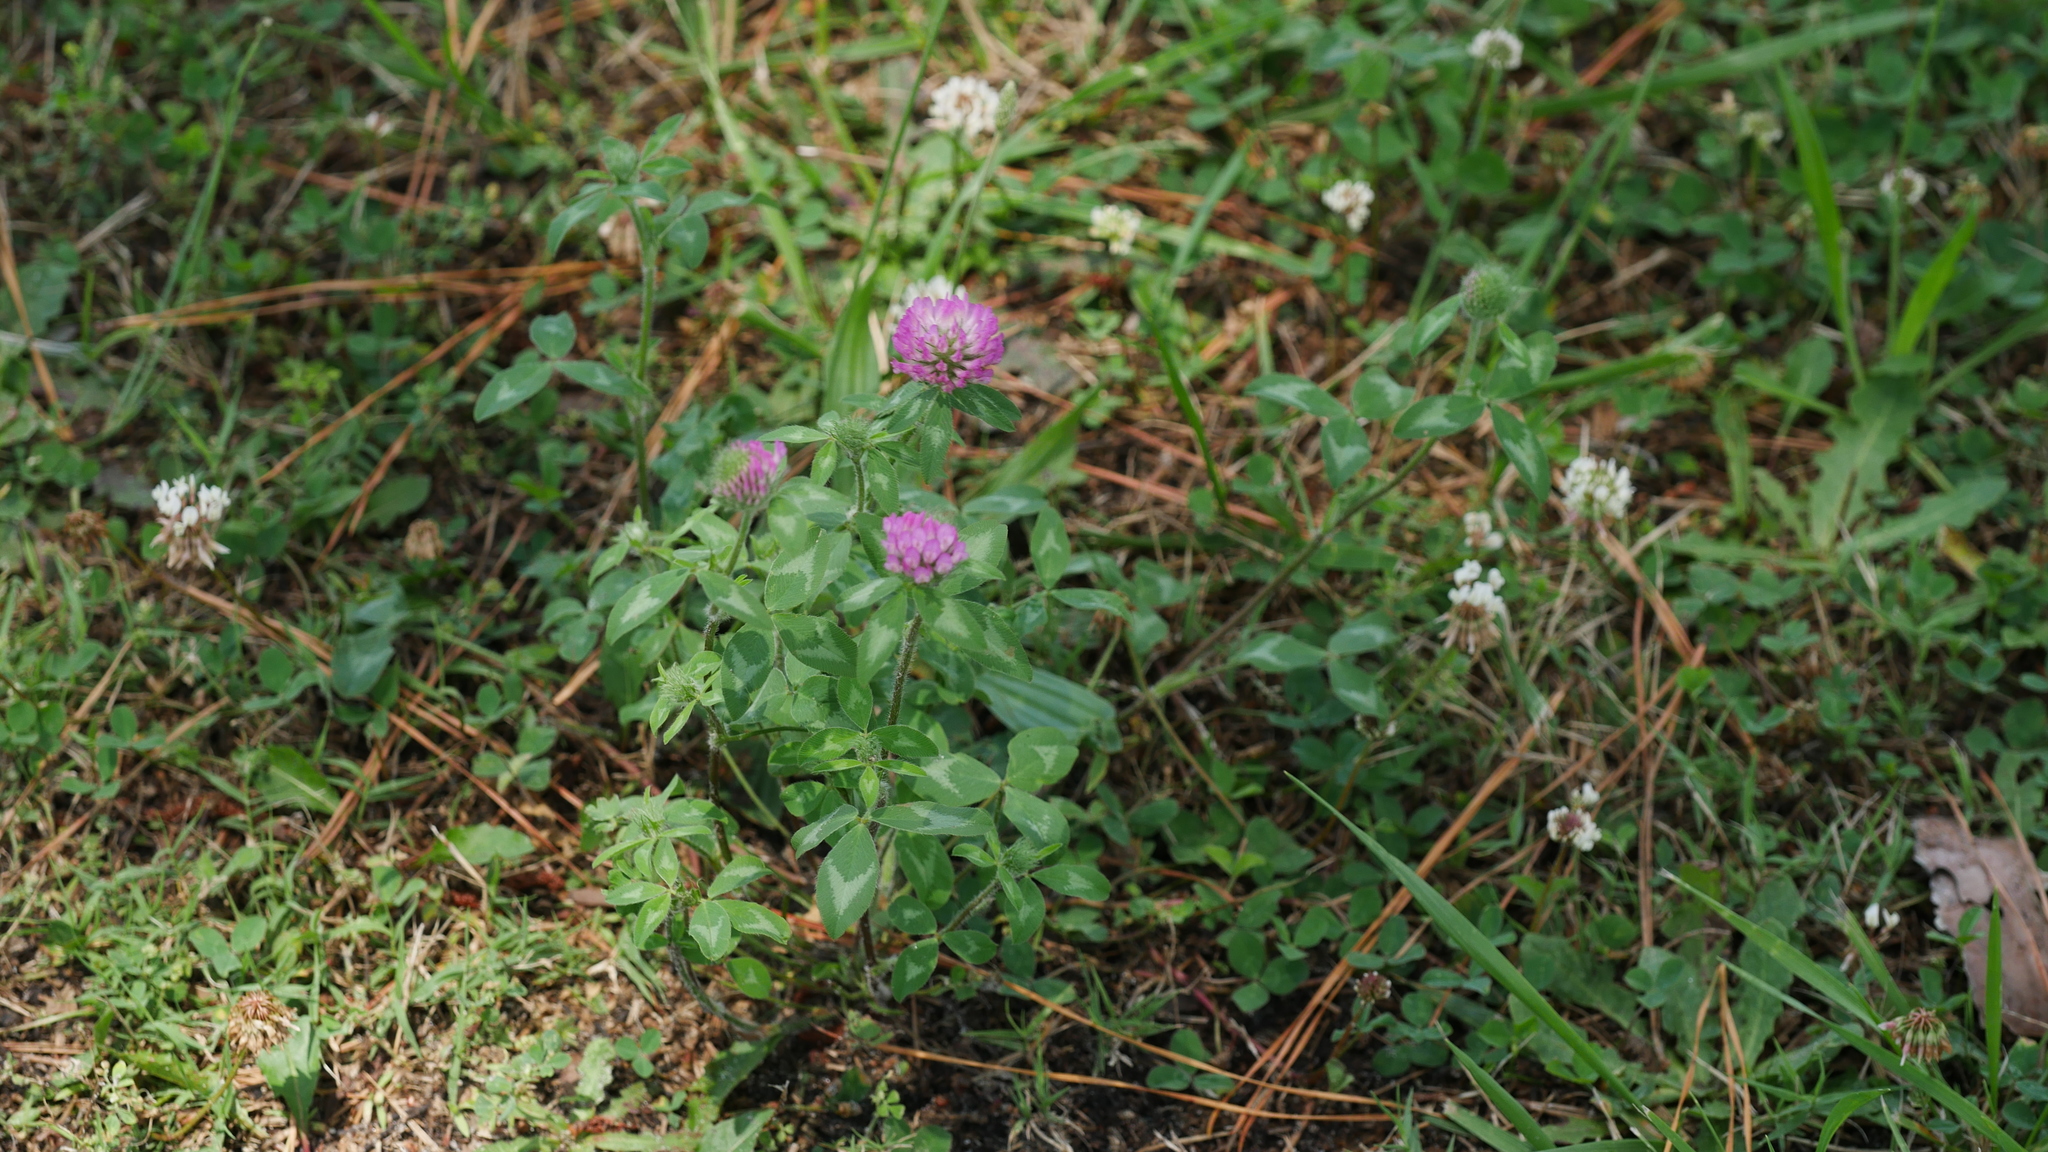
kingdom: Plantae
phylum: Tracheophyta
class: Magnoliopsida
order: Fabales
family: Fabaceae
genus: Trifolium
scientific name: Trifolium pratense
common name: Red clover
